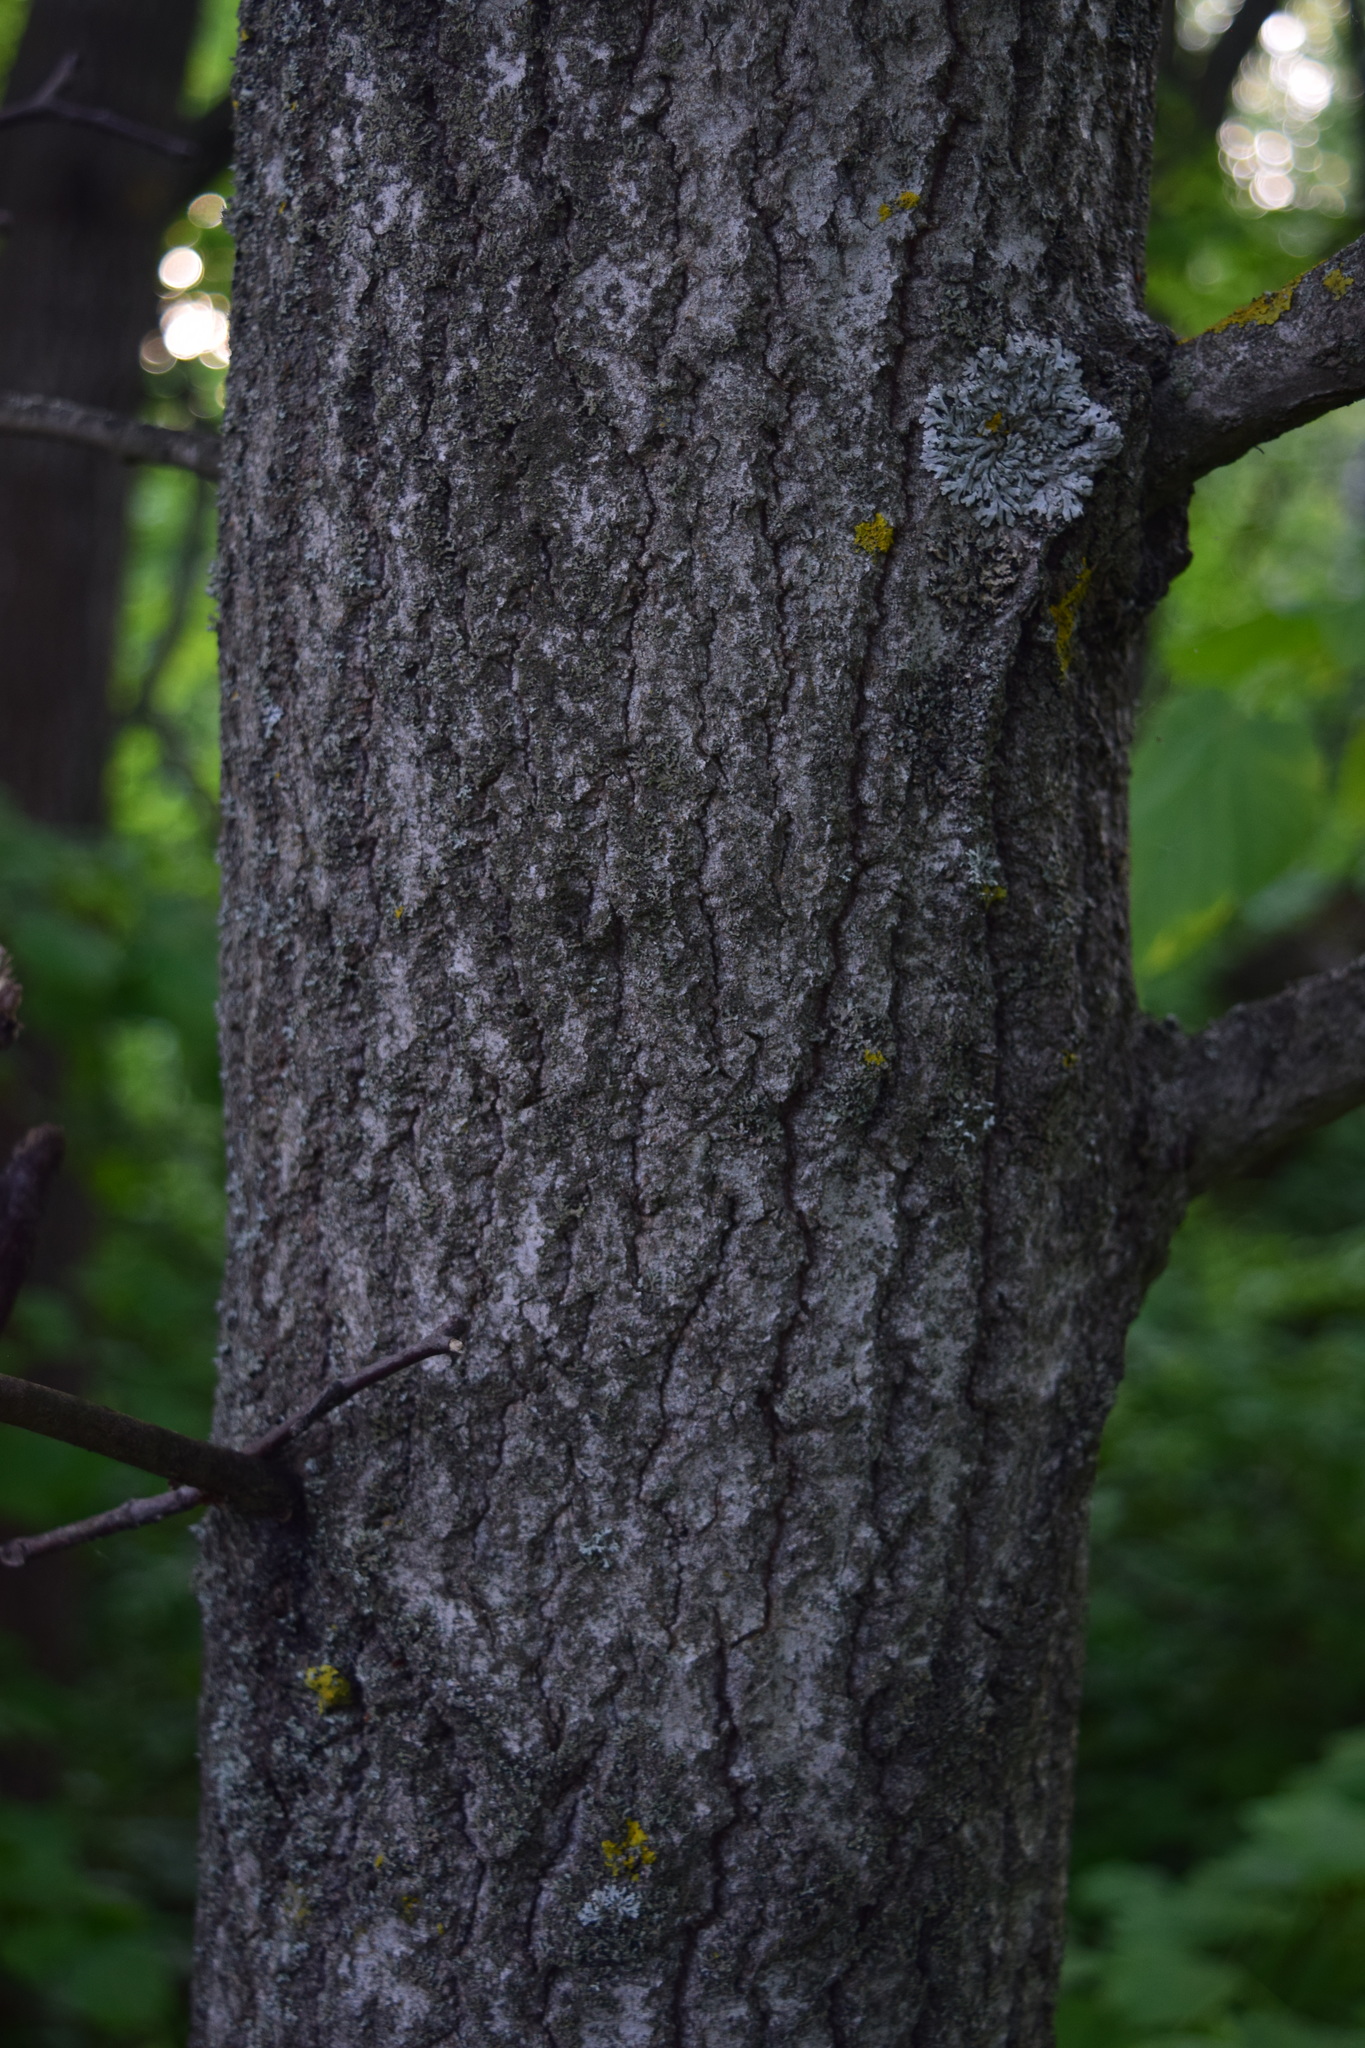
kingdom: Plantae
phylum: Tracheophyta
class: Magnoliopsida
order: Malpighiales
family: Salicaceae
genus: Populus
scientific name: Populus tremula
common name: European aspen
